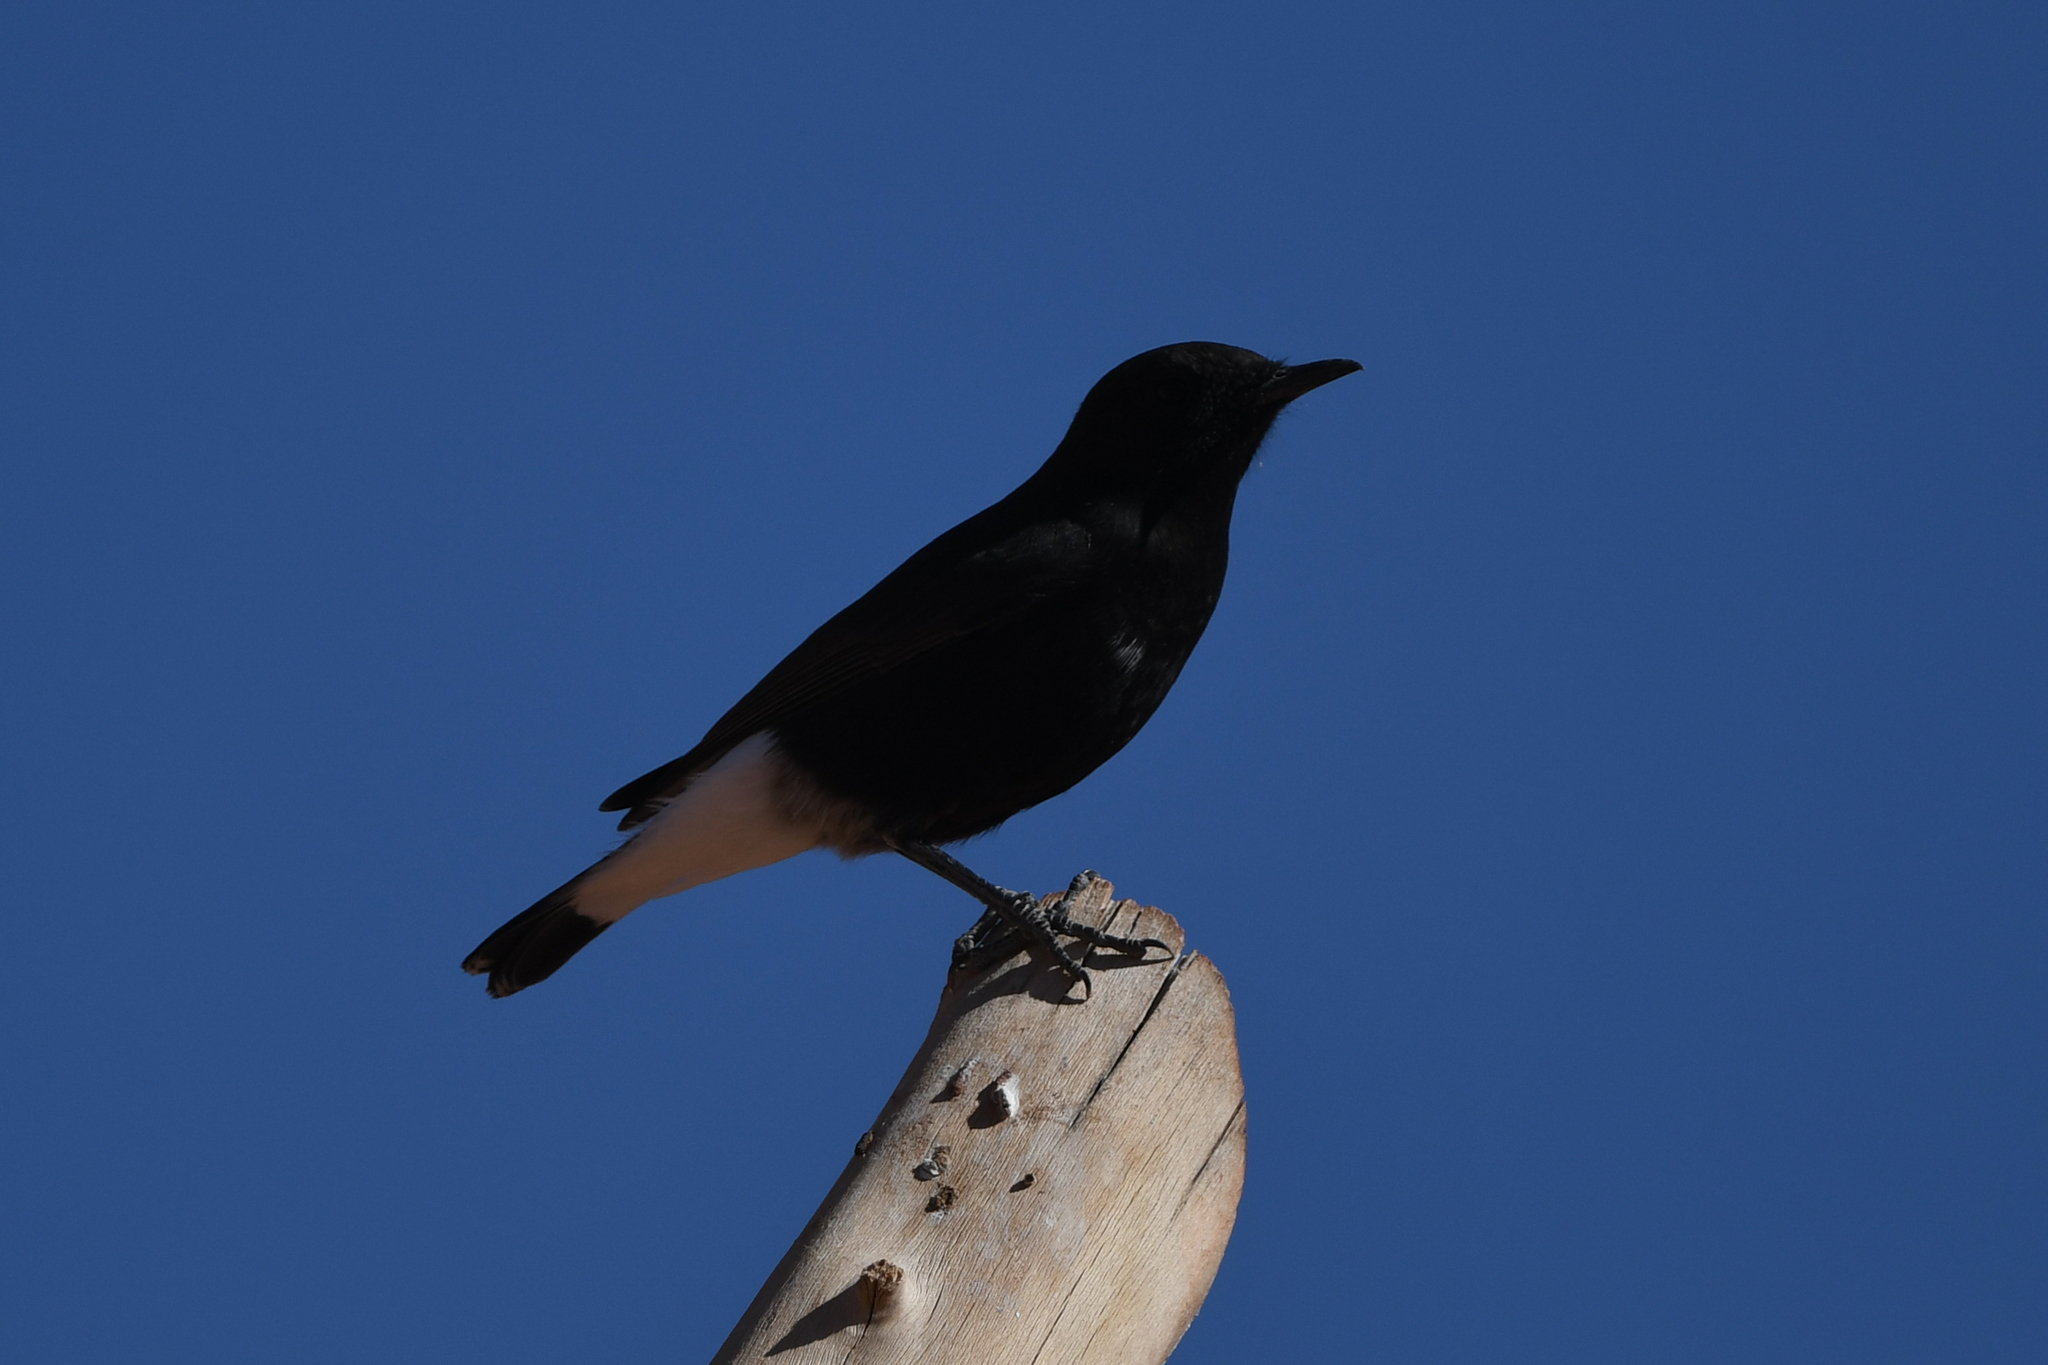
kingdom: Animalia
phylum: Chordata
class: Aves
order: Passeriformes
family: Muscicapidae
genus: Oenanthe
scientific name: Oenanthe leucura
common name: Black wheatear
